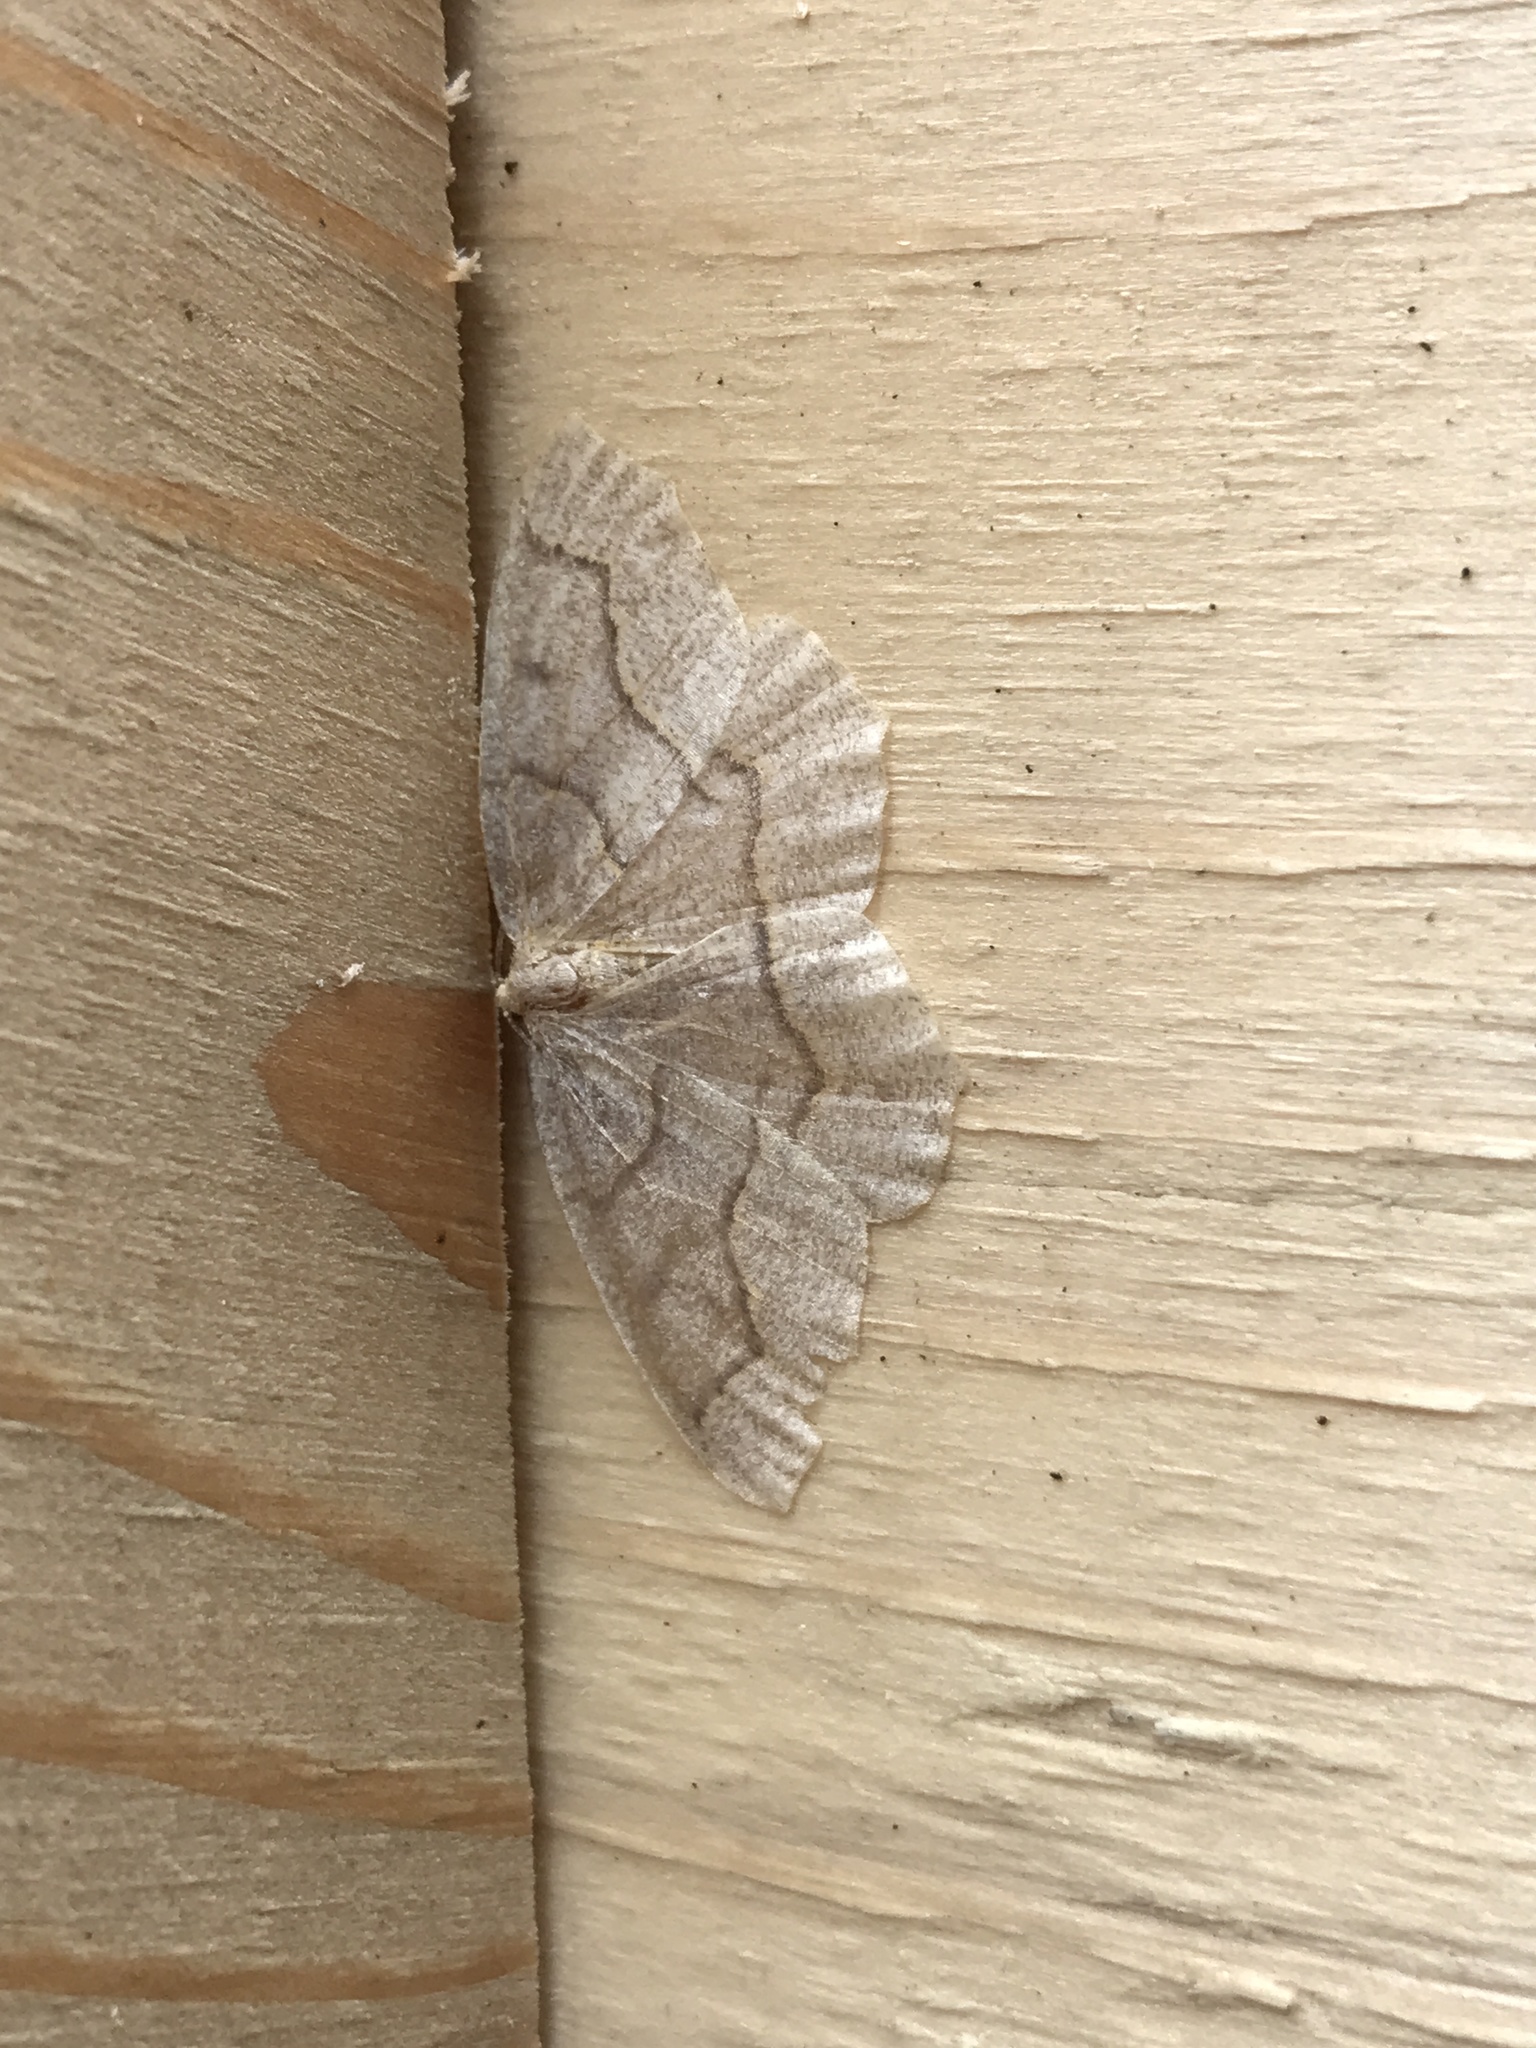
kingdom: Animalia
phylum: Arthropoda
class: Insecta
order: Lepidoptera
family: Geometridae
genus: Lambdina
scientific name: Lambdina fiscellaria
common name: Hemlock looper
